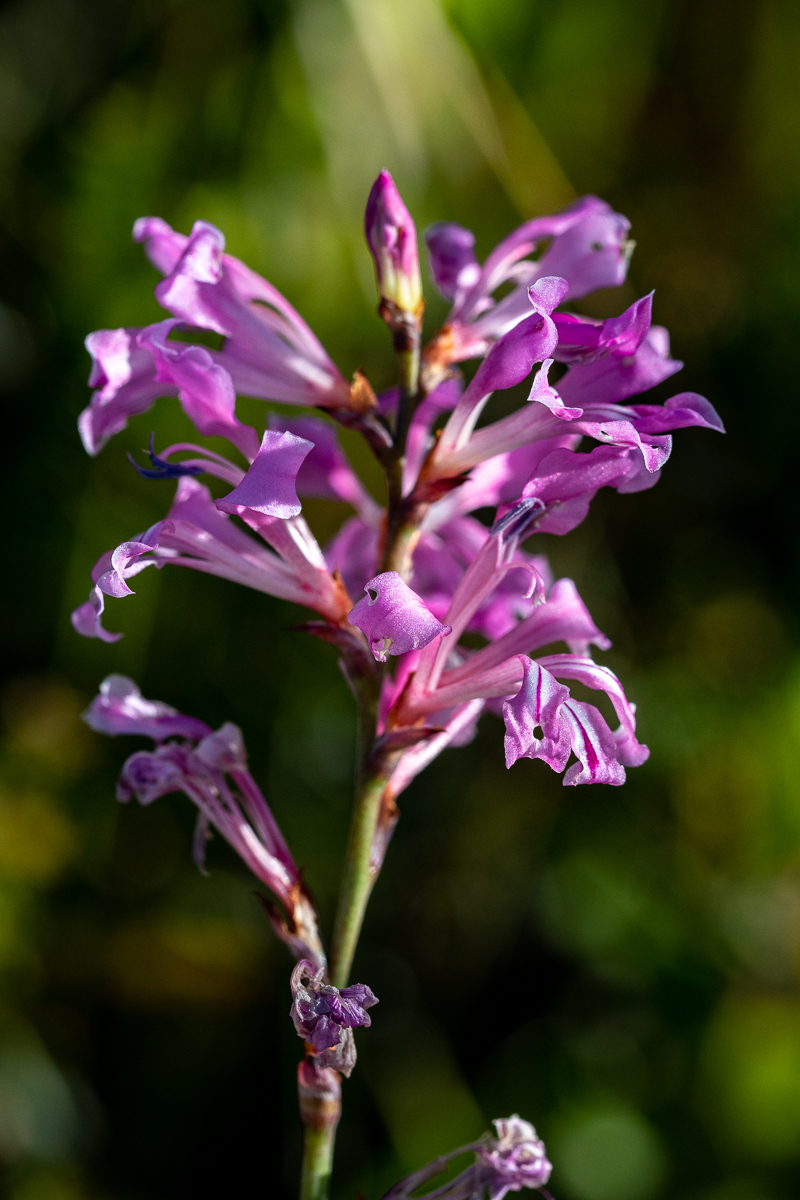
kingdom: Plantae
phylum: Tracheophyta
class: Liliopsida
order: Asparagales
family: Iridaceae
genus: Tritoniopsis
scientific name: Tritoniopsis lata
